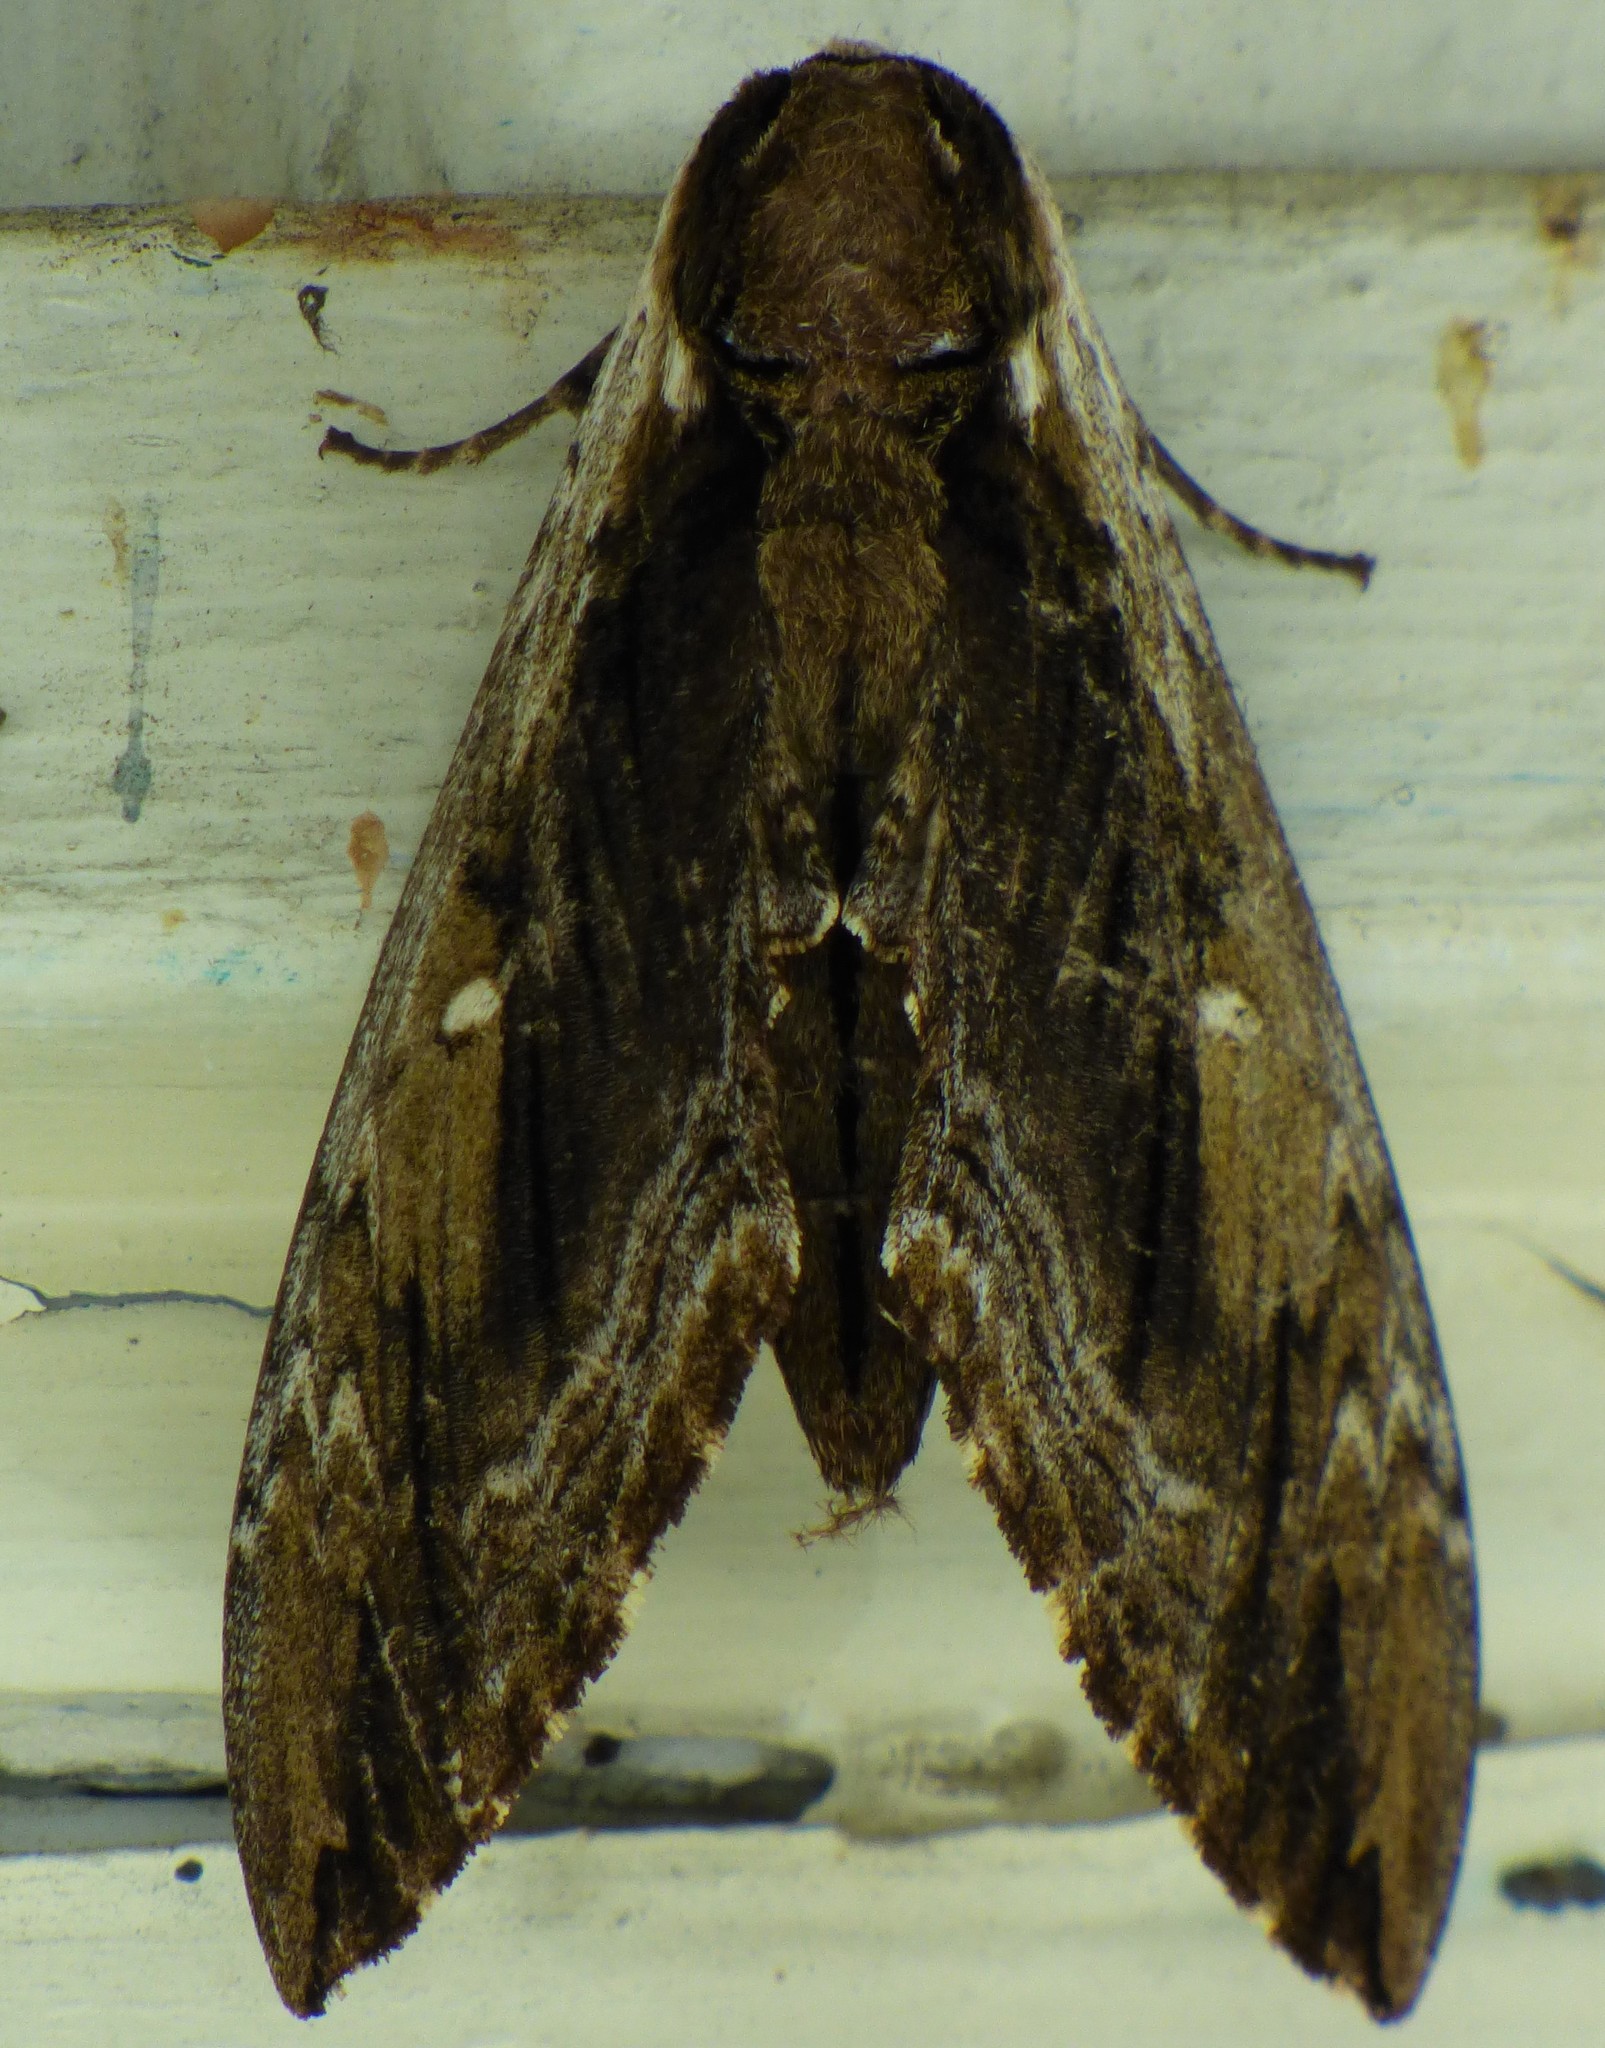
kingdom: Animalia
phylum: Arthropoda
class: Insecta
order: Lepidoptera
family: Sphingidae
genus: Ceratomia
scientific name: Ceratomia amyntor
